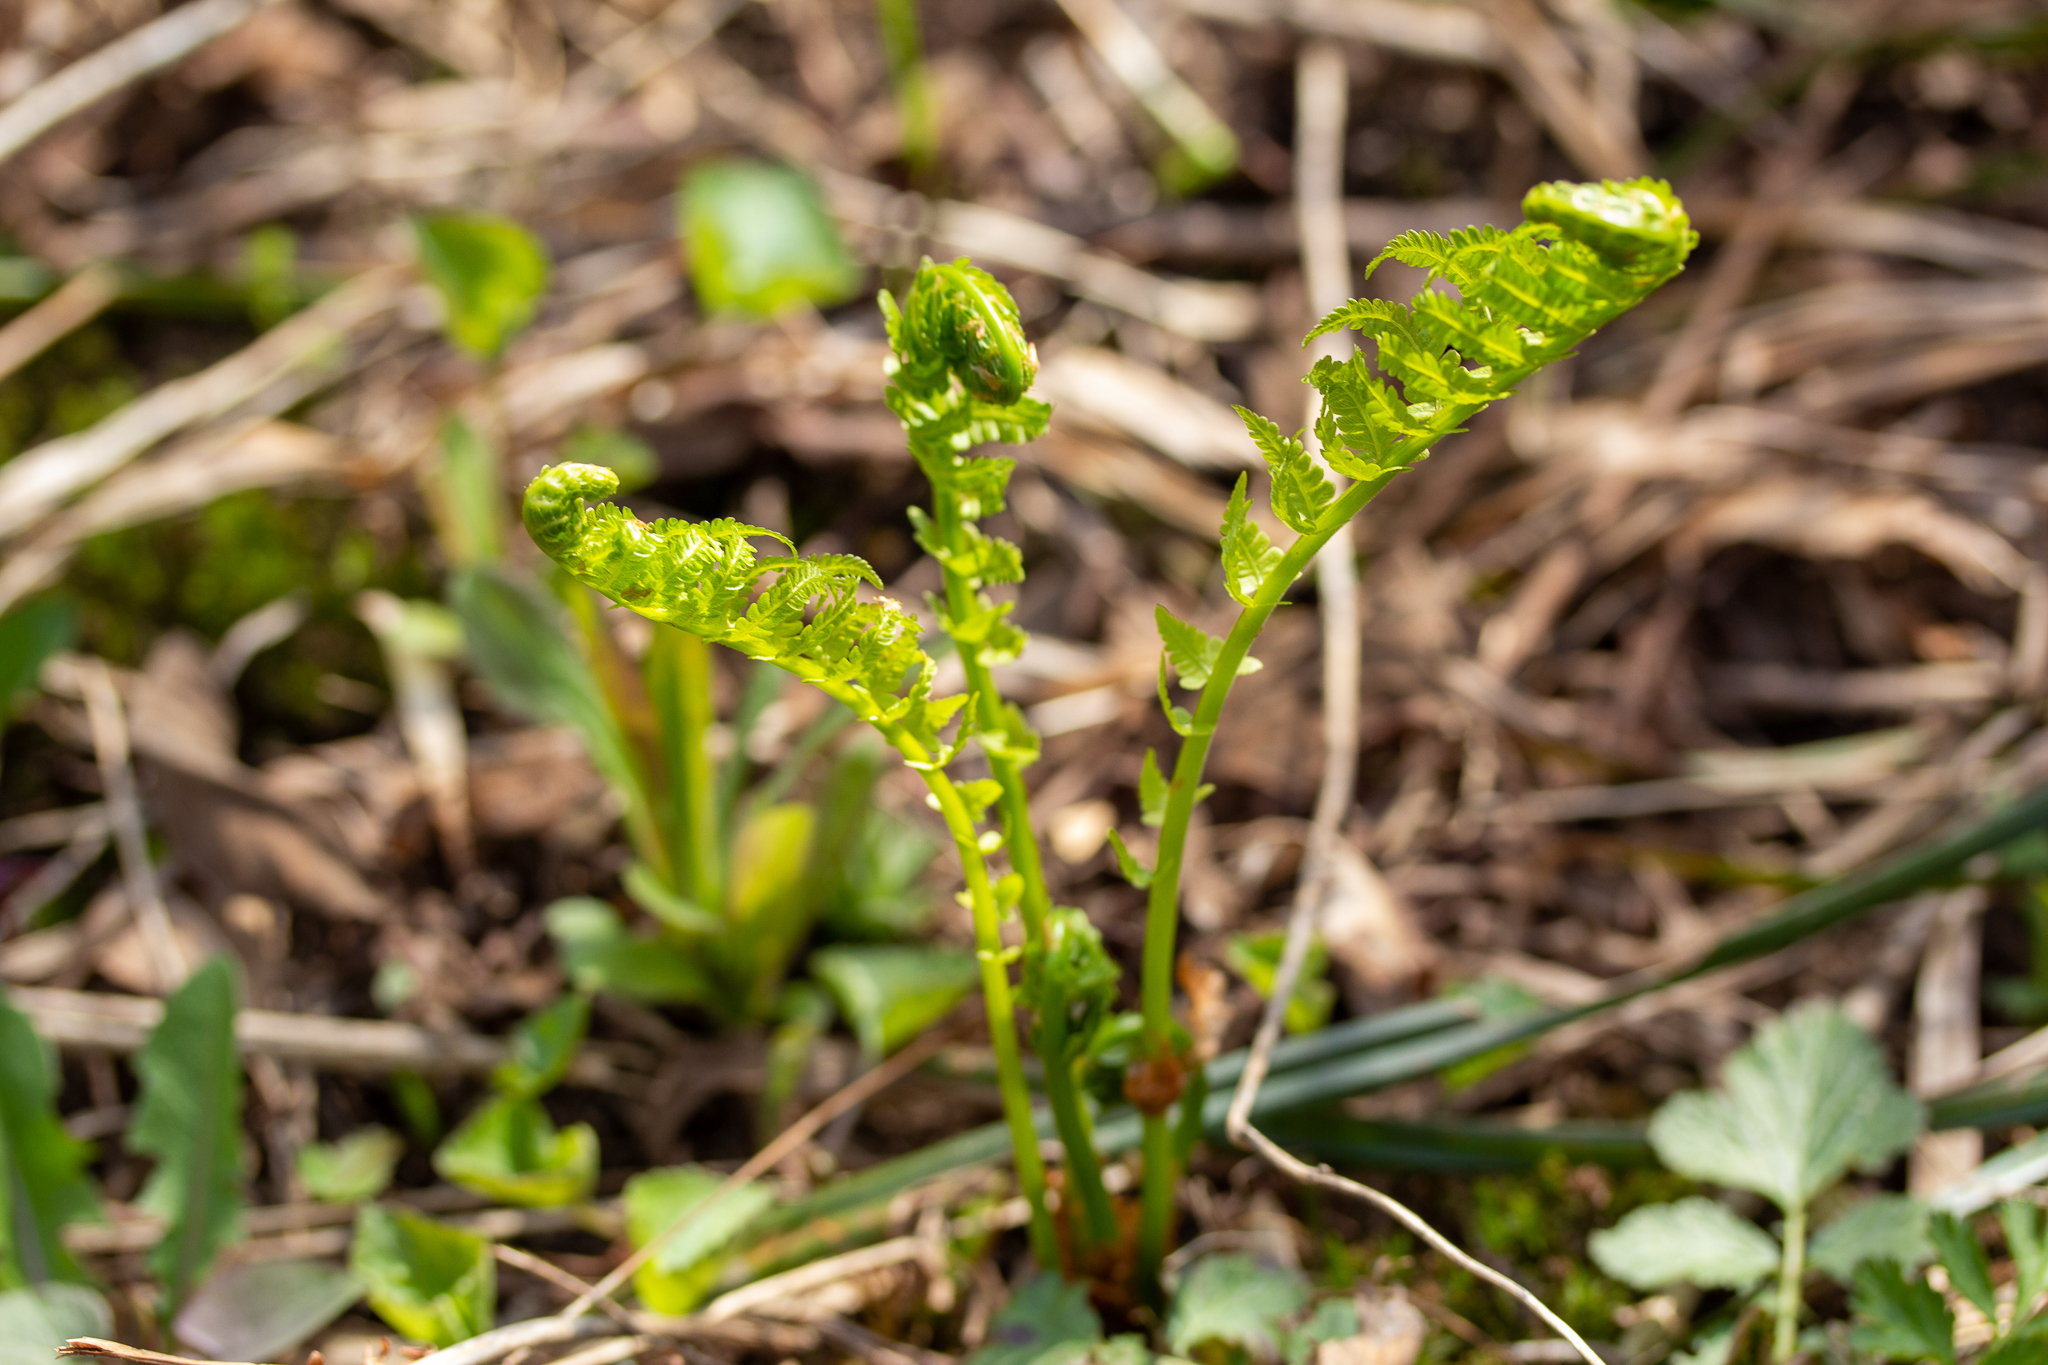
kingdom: Plantae
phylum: Tracheophyta
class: Polypodiopsida
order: Polypodiales
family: Onocleaceae
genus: Matteuccia
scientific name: Matteuccia struthiopteris
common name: Ostrich fern
